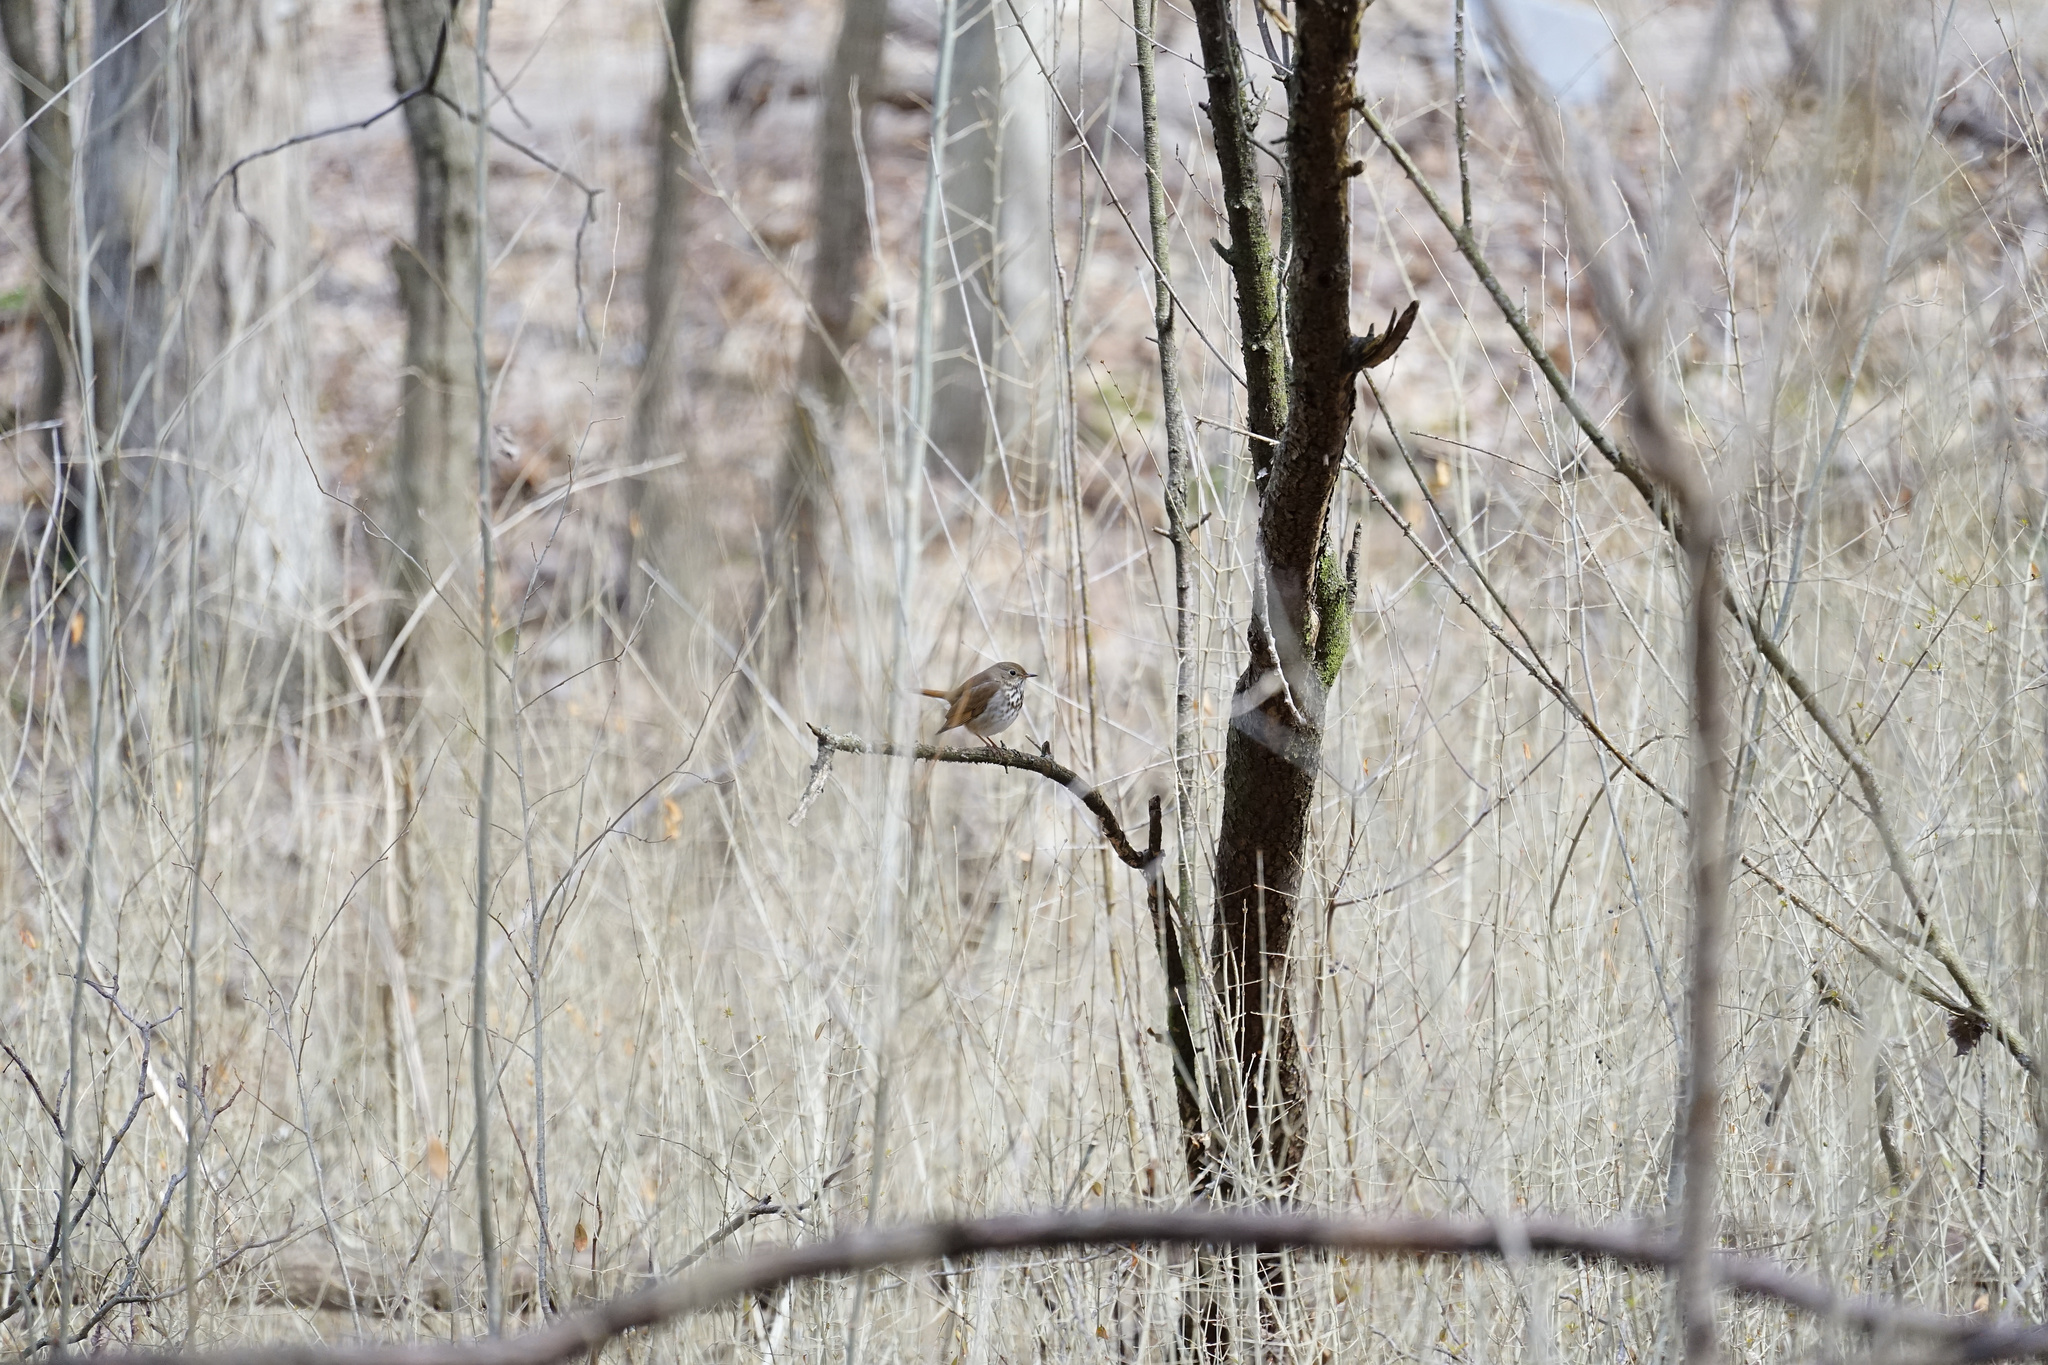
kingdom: Animalia
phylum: Chordata
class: Aves
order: Passeriformes
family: Turdidae
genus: Catharus
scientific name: Catharus guttatus
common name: Hermit thrush
